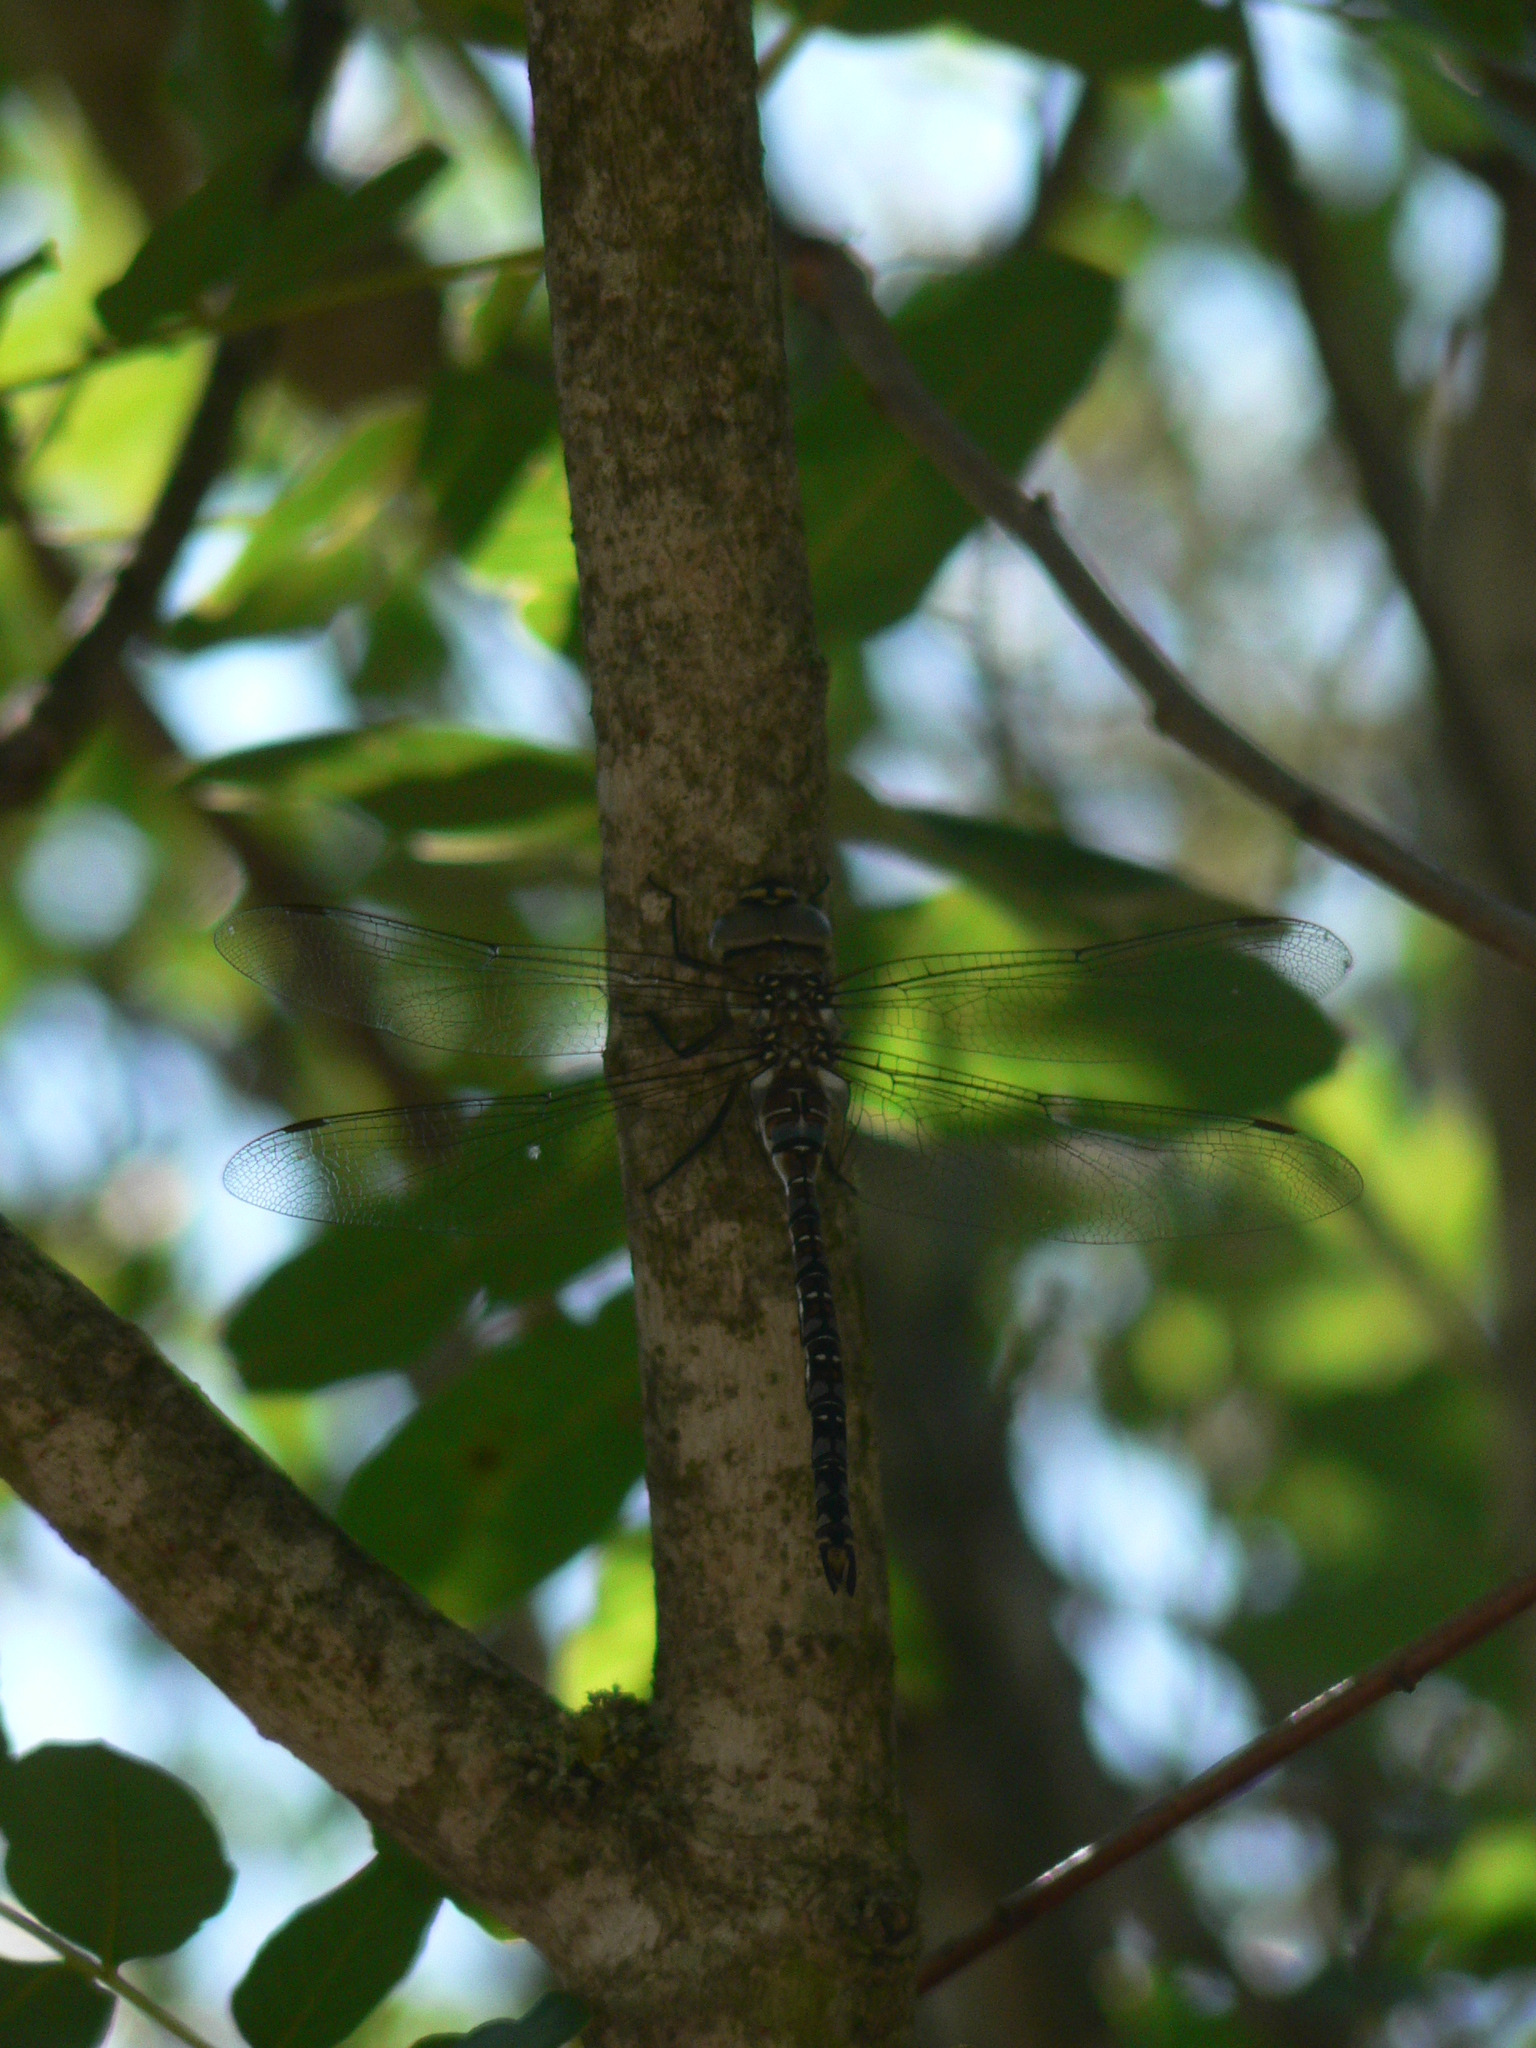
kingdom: Animalia
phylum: Arthropoda
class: Insecta
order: Odonata
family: Aeshnidae
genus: Aeshna
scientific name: Aeshna mixta
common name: Migrant hawker
